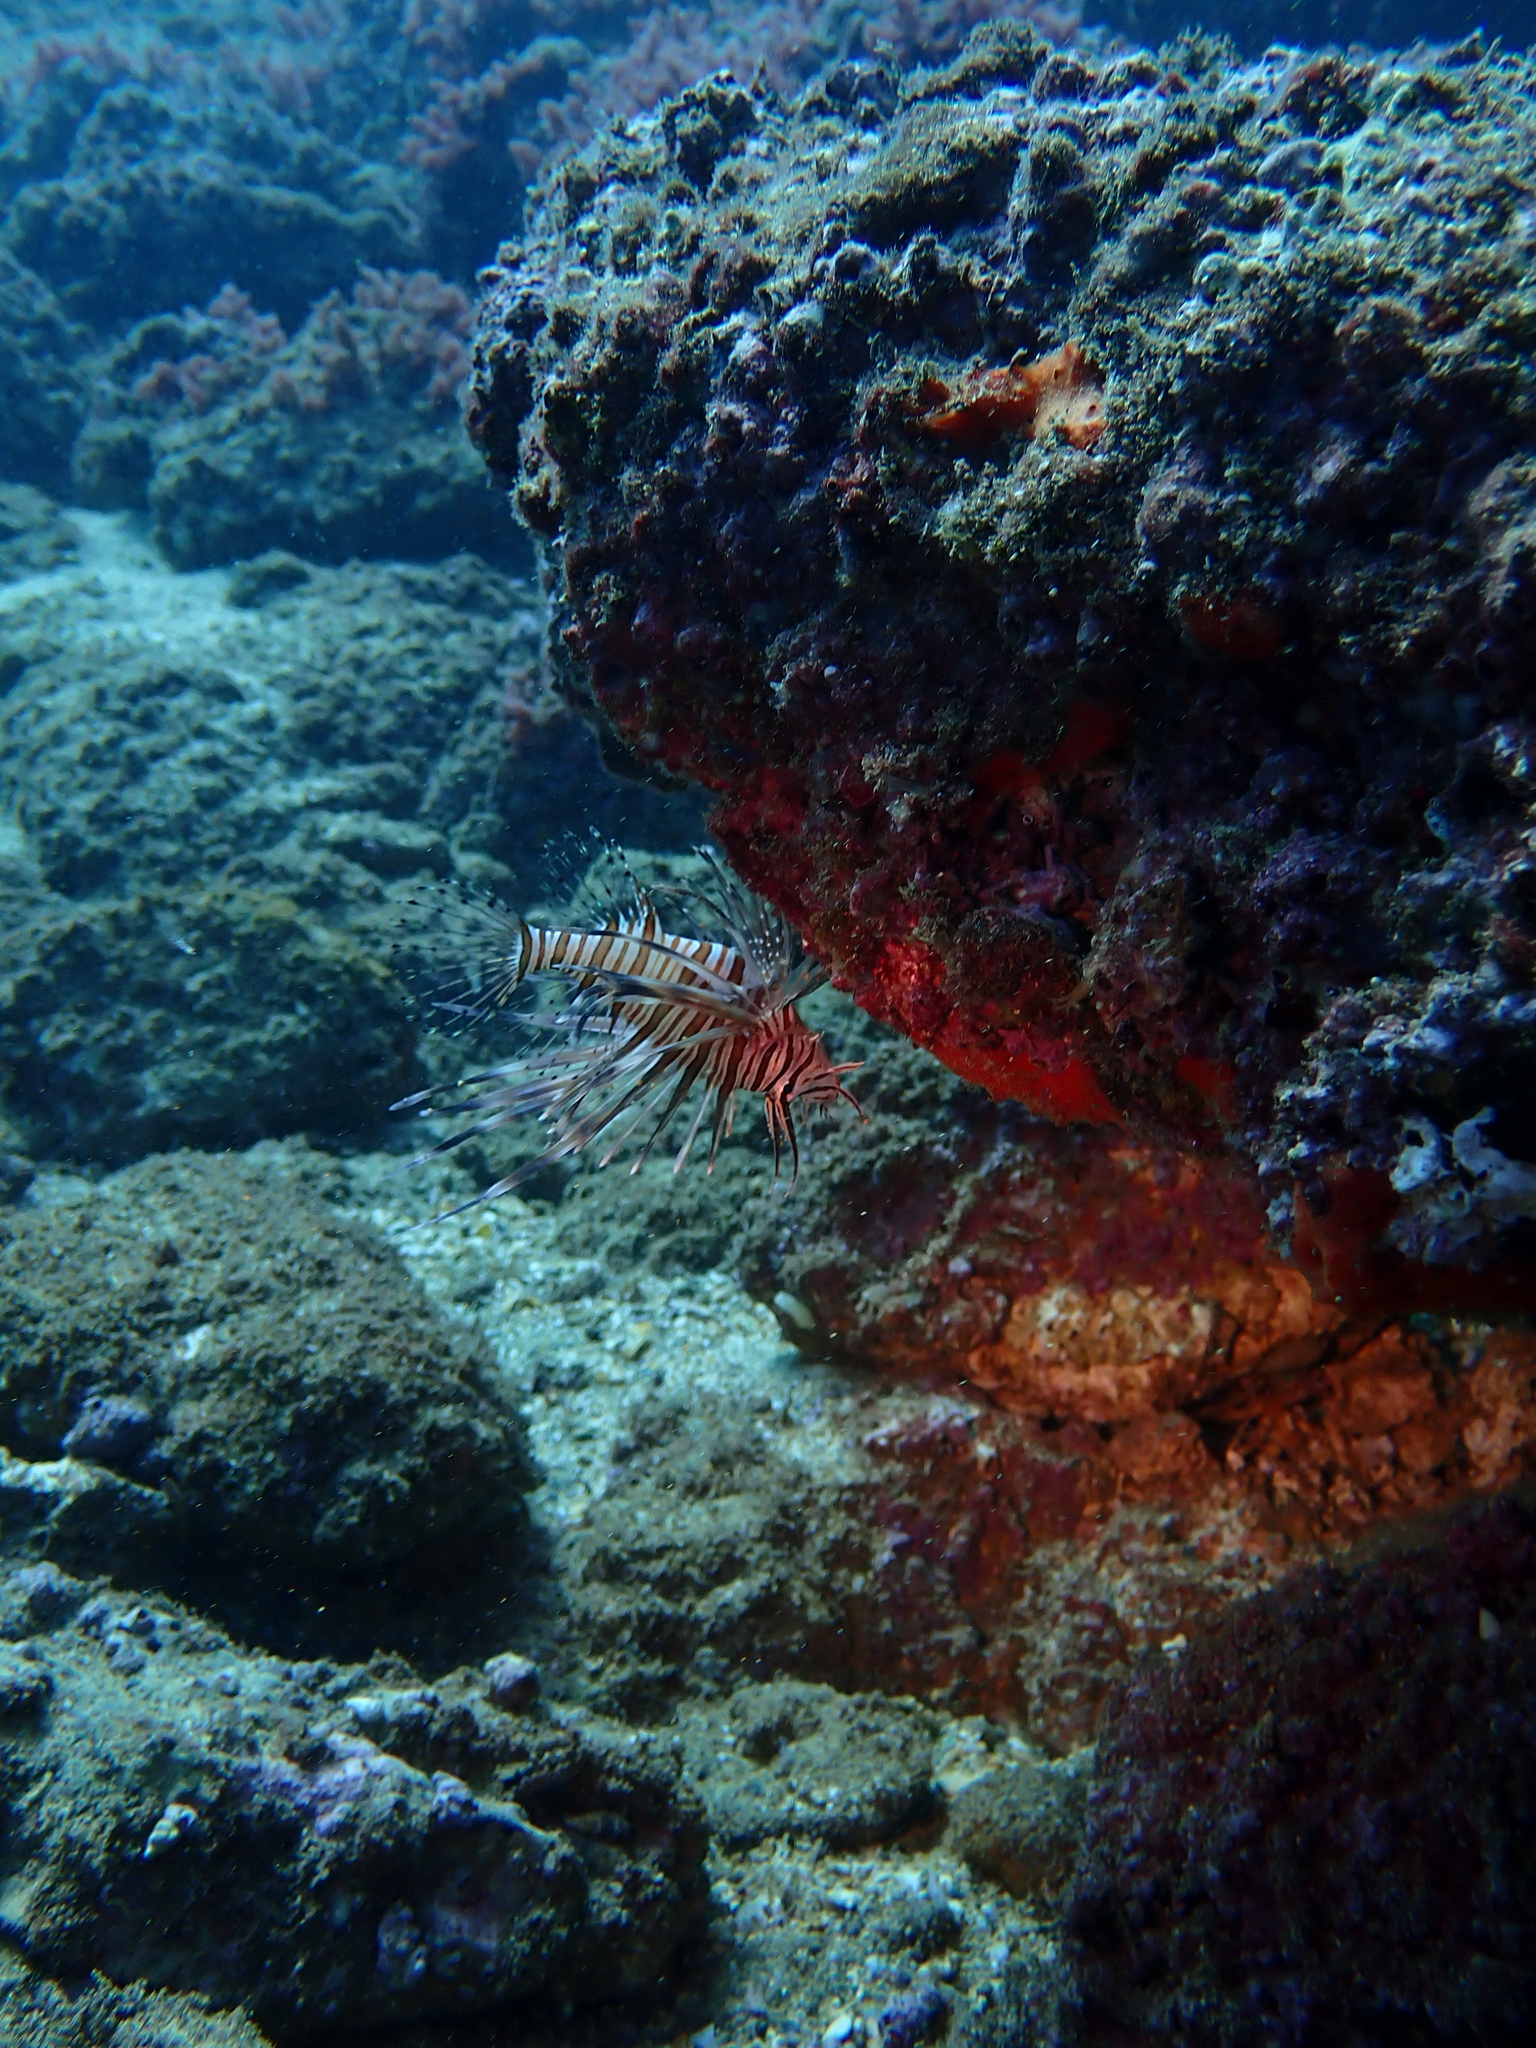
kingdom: Animalia
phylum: Chordata
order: Scorpaeniformes
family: Scorpaenidae
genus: Pterois
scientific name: Pterois miles
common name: Devil firefish
